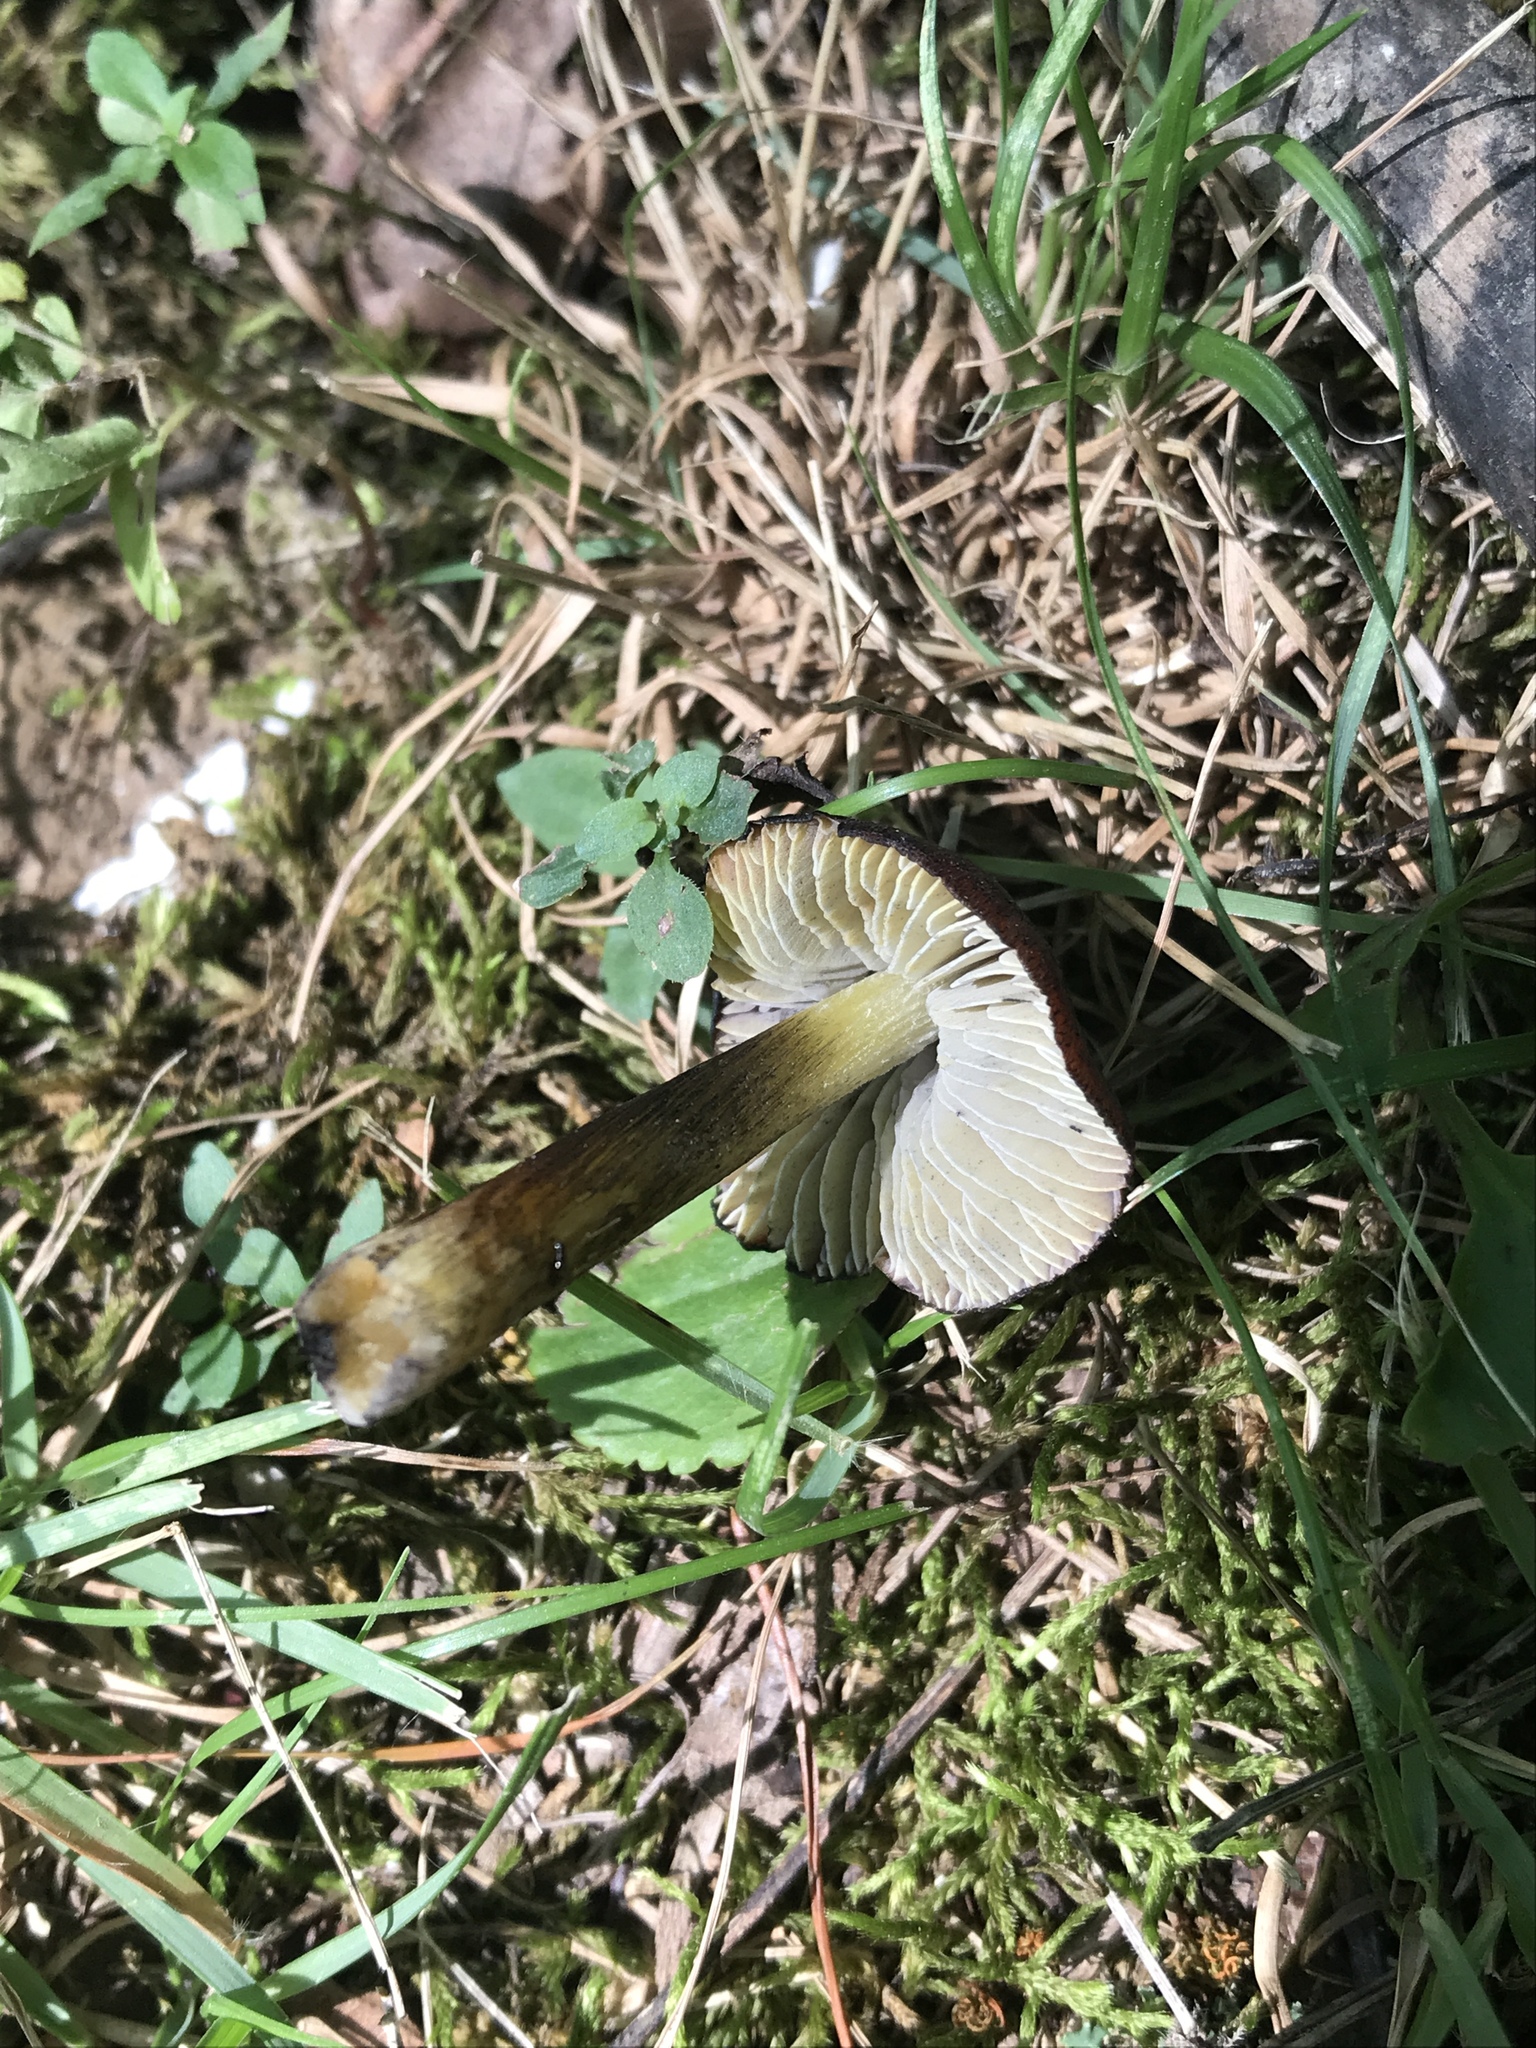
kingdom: Fungi
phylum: Basidiomycota
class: Agaricomycetes
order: Agaricales
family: Hygrophoraceae
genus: Hygrocybe
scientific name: Hygrocybe conica
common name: Blackening wax-cap
